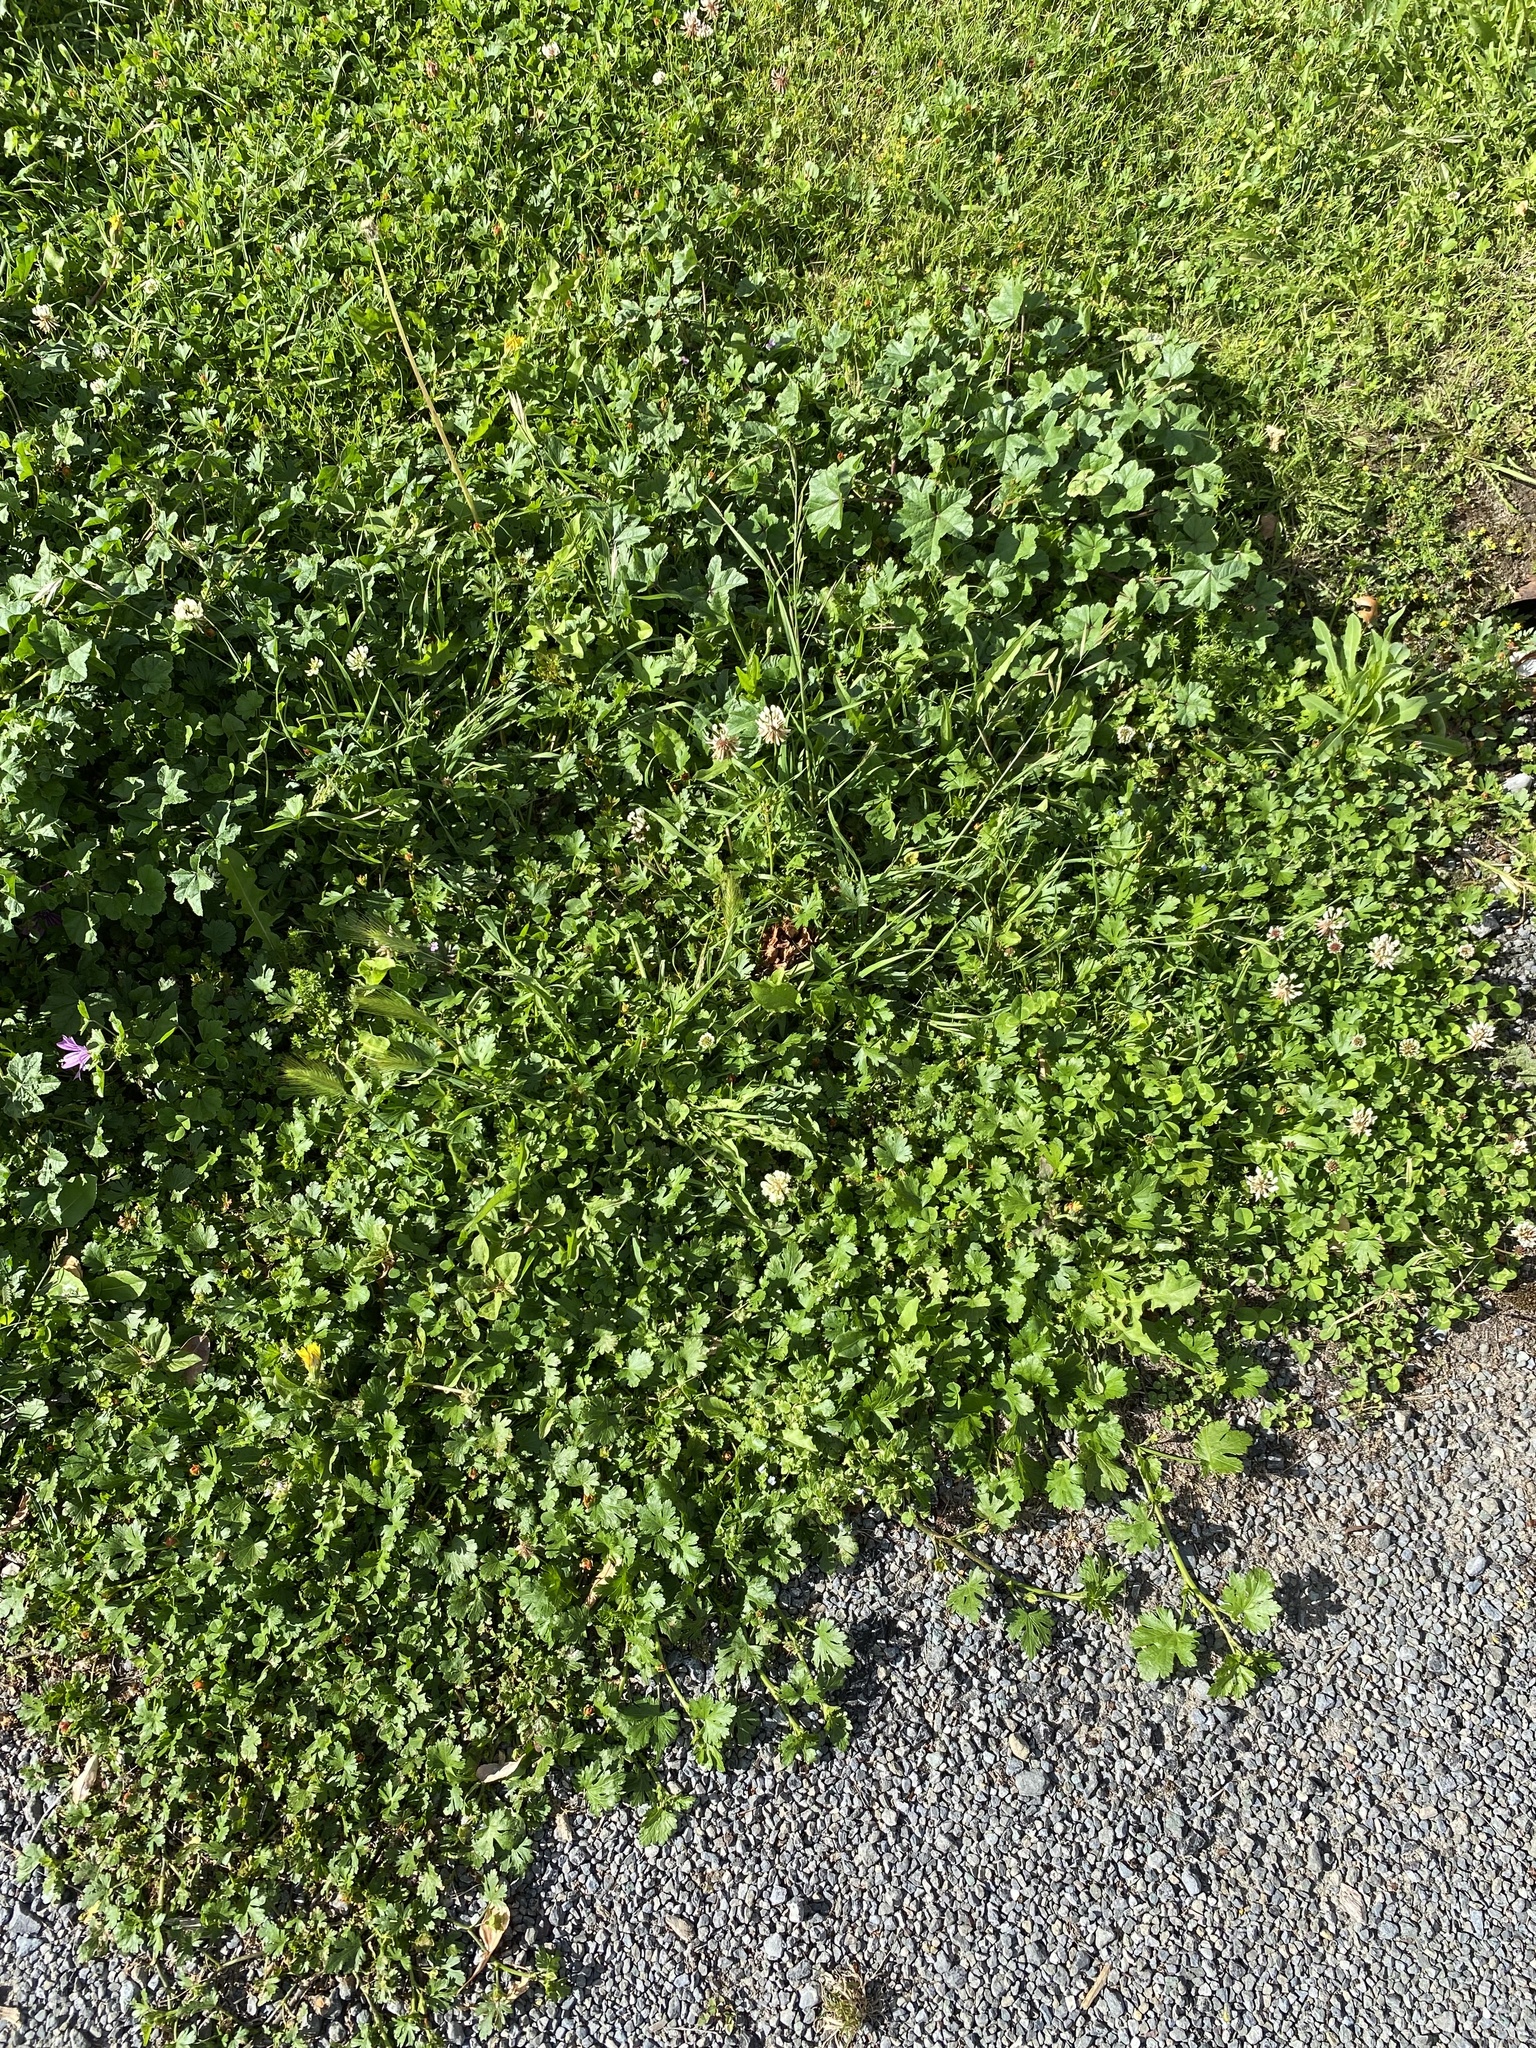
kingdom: Plantae
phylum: Tracheophyta
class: Magnoliopsida
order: Malvales
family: Malvaceae
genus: Modiola
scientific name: Modiola caroliniana
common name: Carolina bristlemallow
